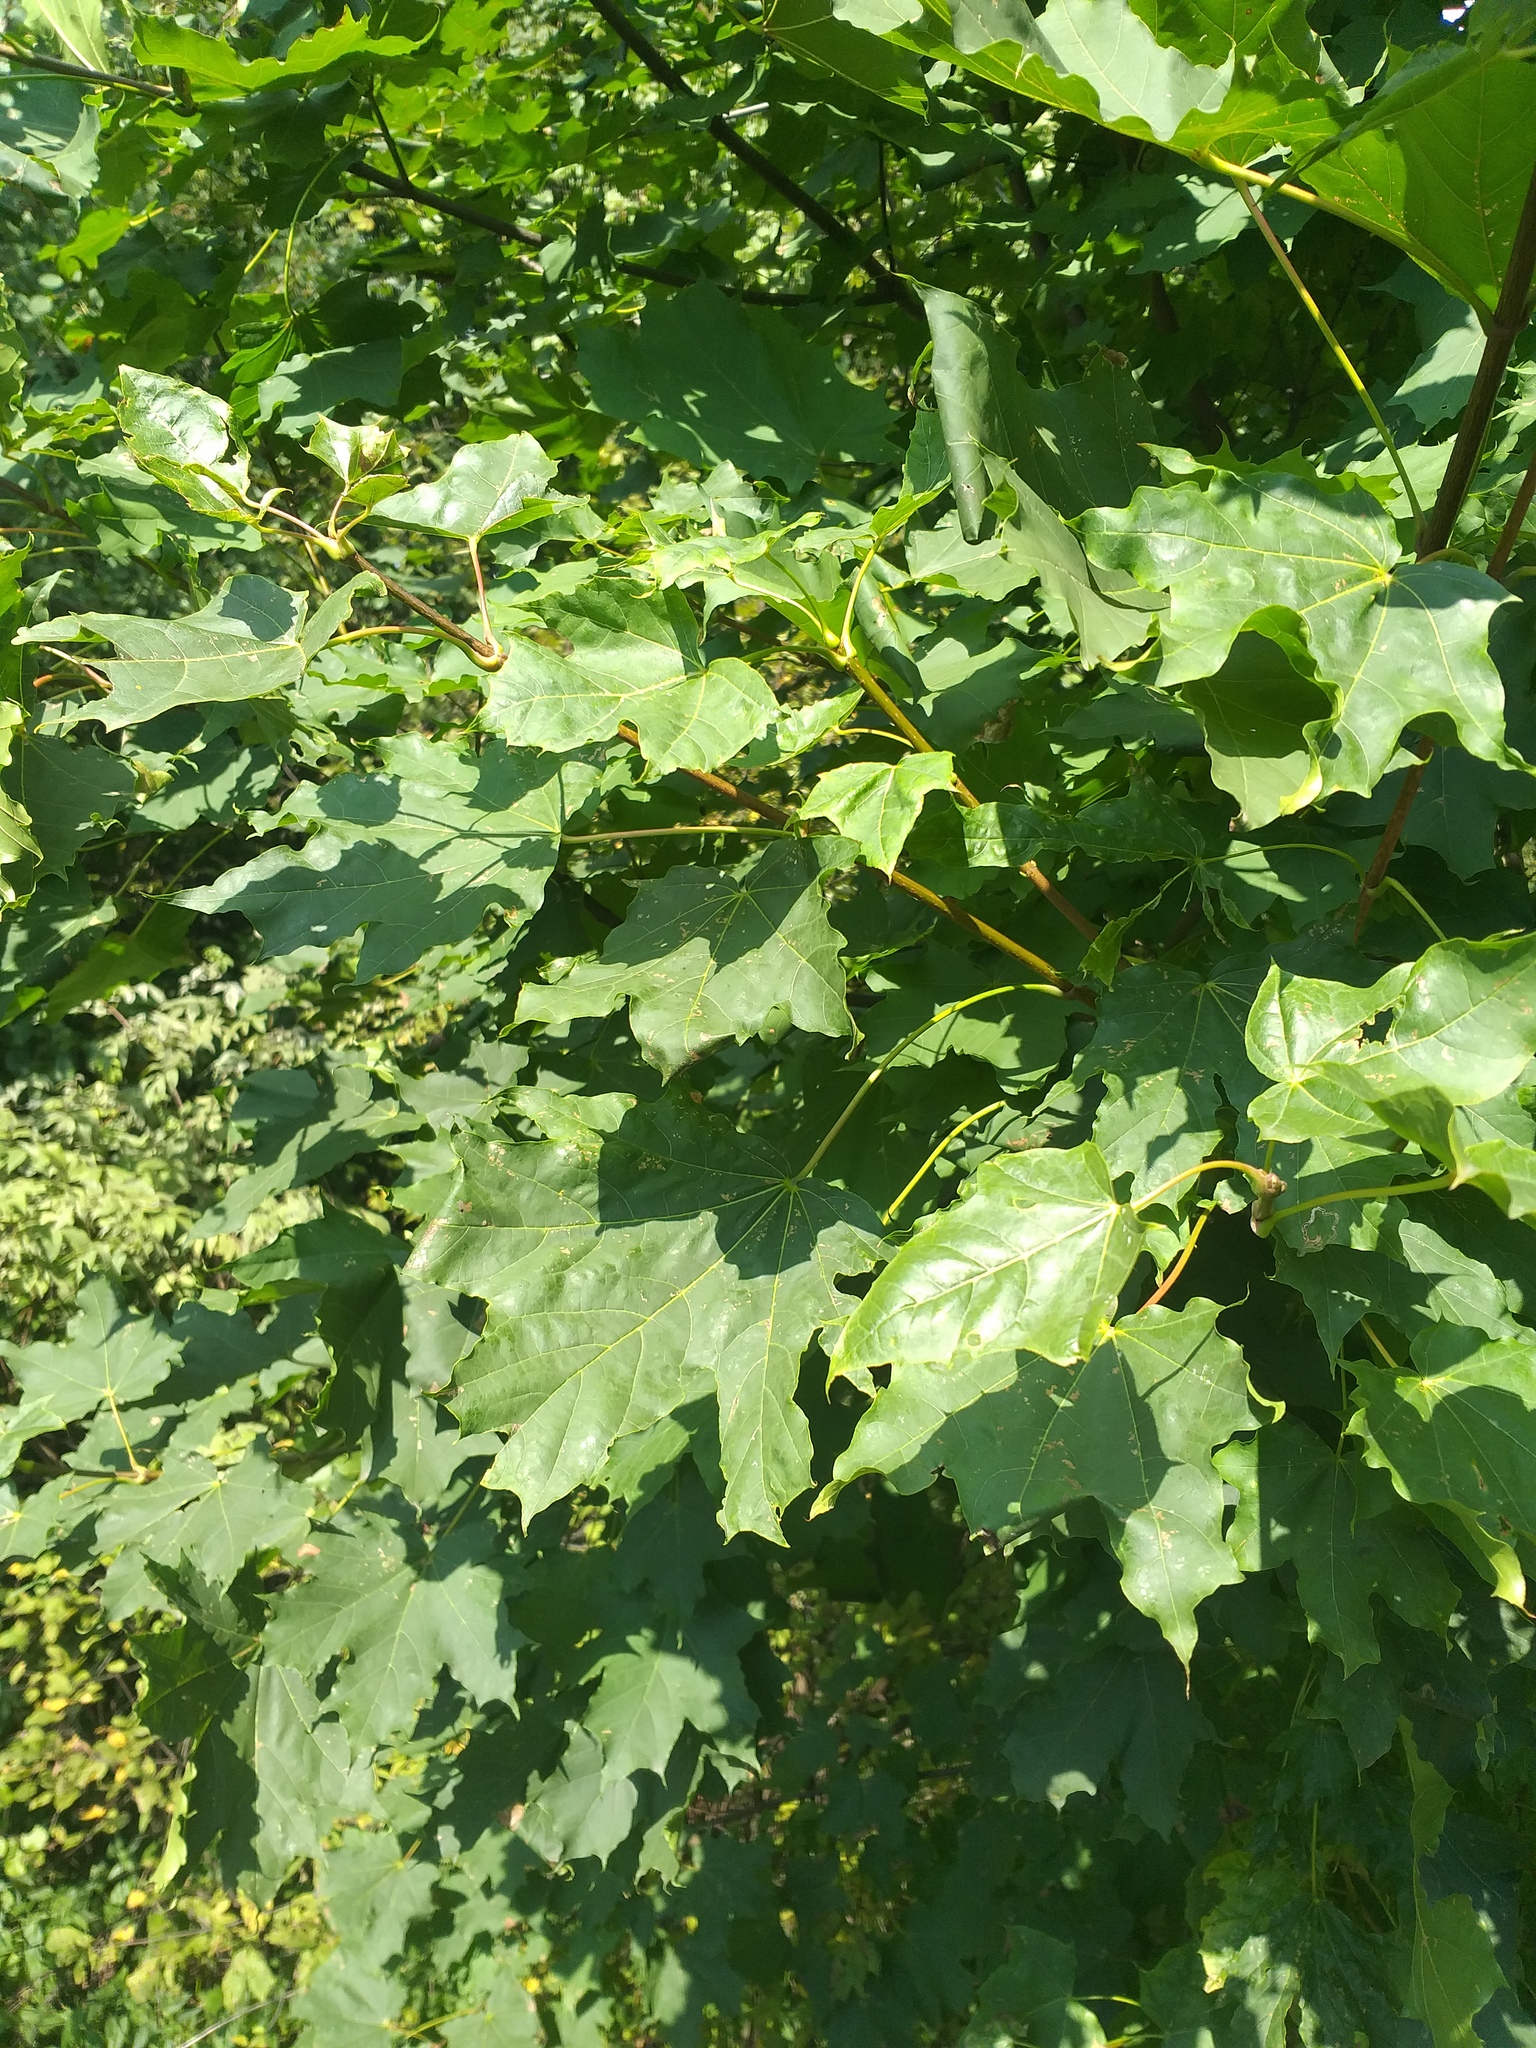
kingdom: Plantae
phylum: Tracheophyta
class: Magnoliopsida
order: Sapindales
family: Sapindaceae
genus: Acer
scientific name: Acer platanoides
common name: Norway maple
